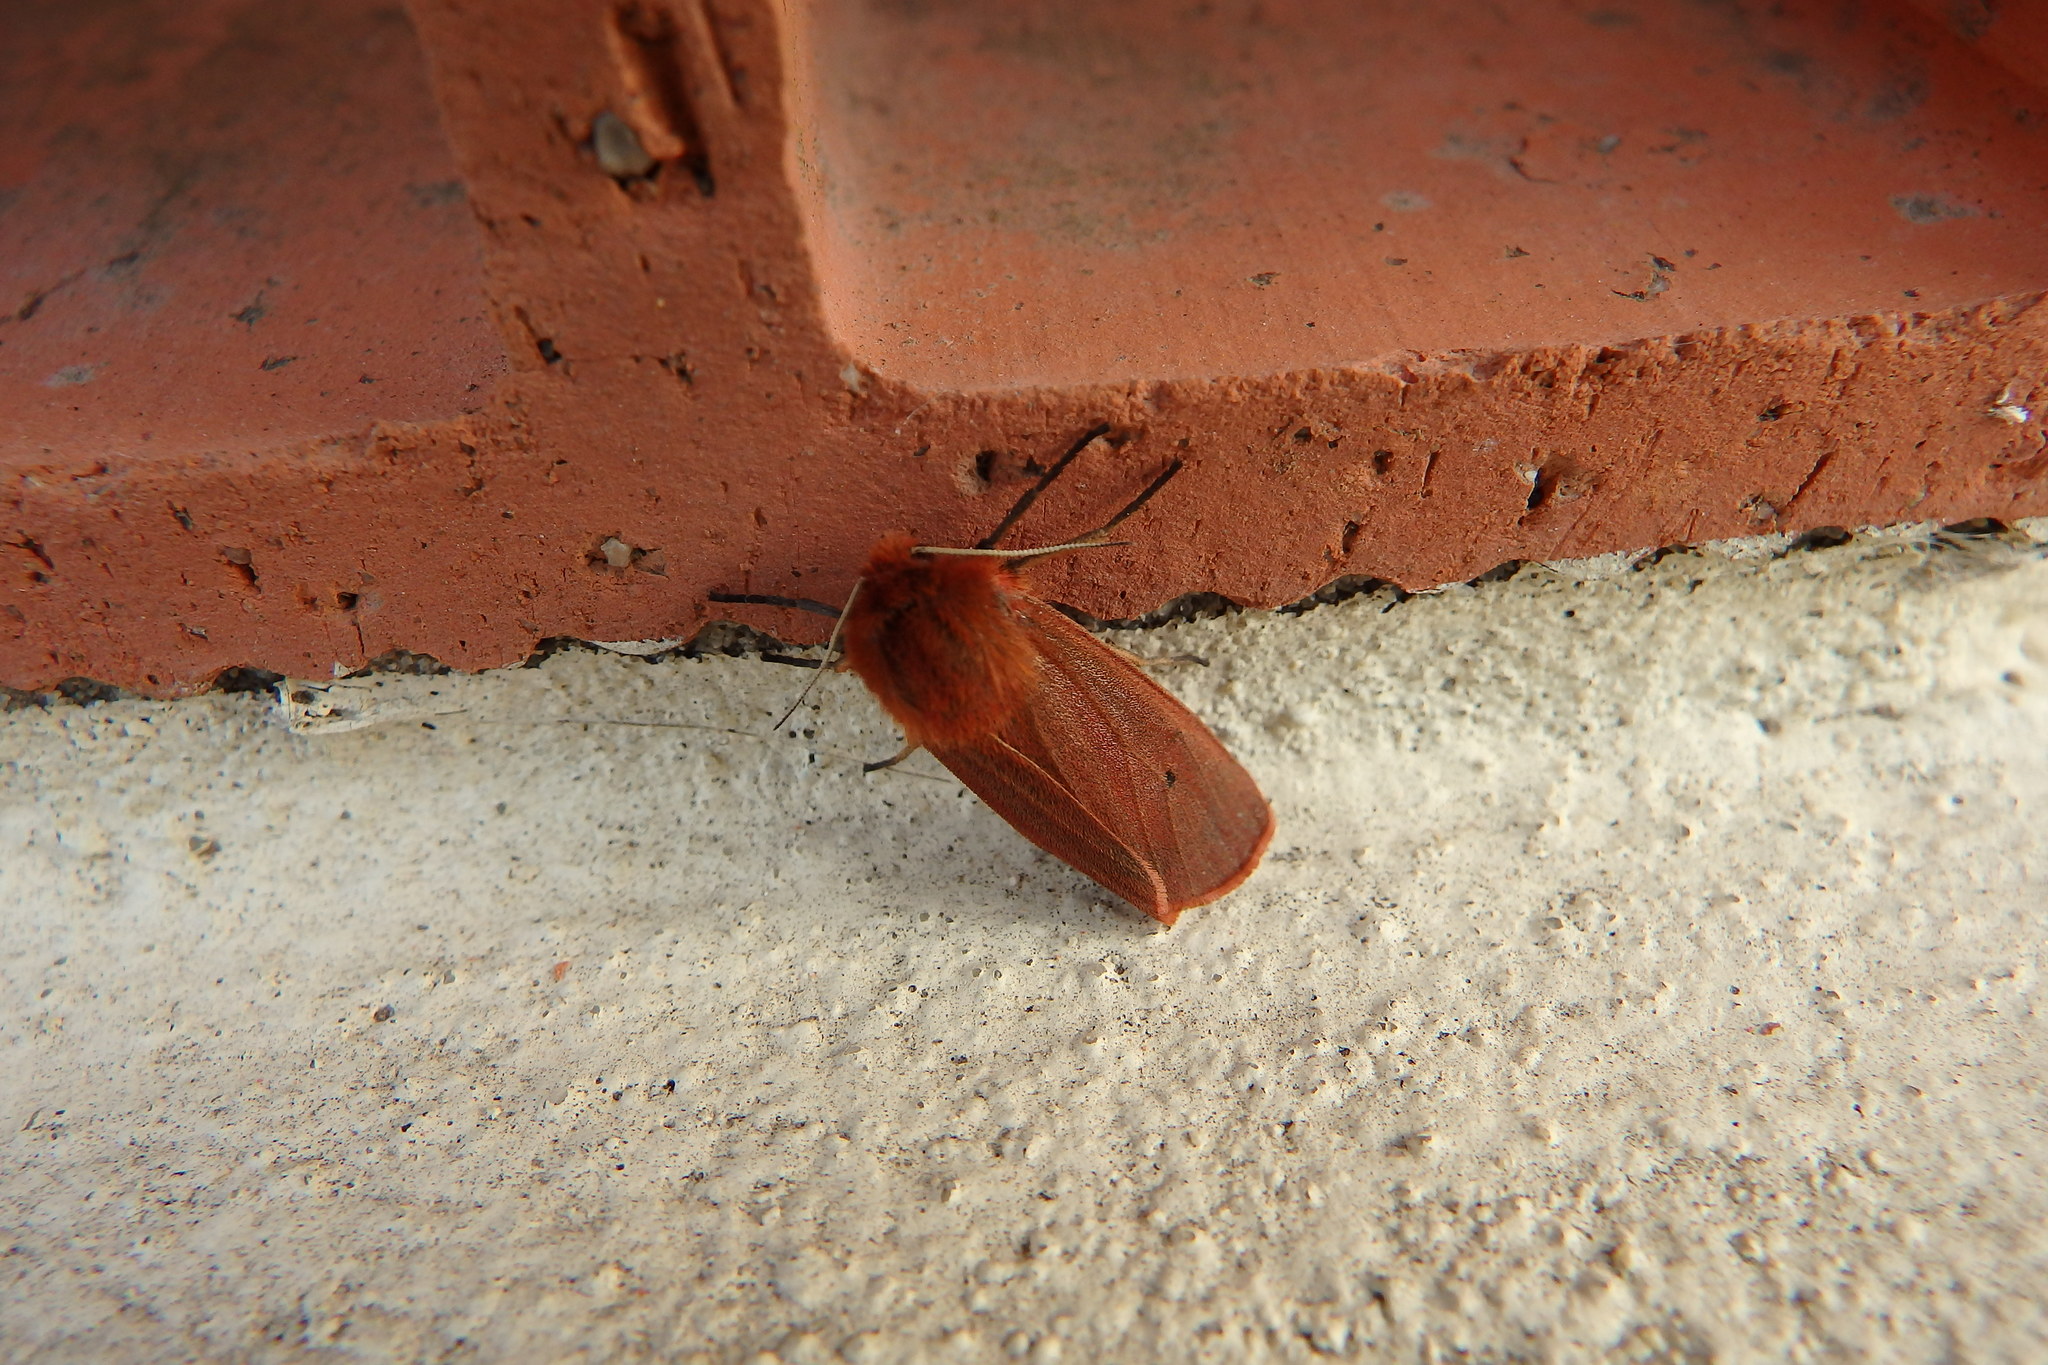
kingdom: Animalia
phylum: Arthropoda
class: Insecta
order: Lepidoptera
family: Erebidae
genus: Phragmatobia
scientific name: Phragmatobia fuliginosa
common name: Ruby tiger
